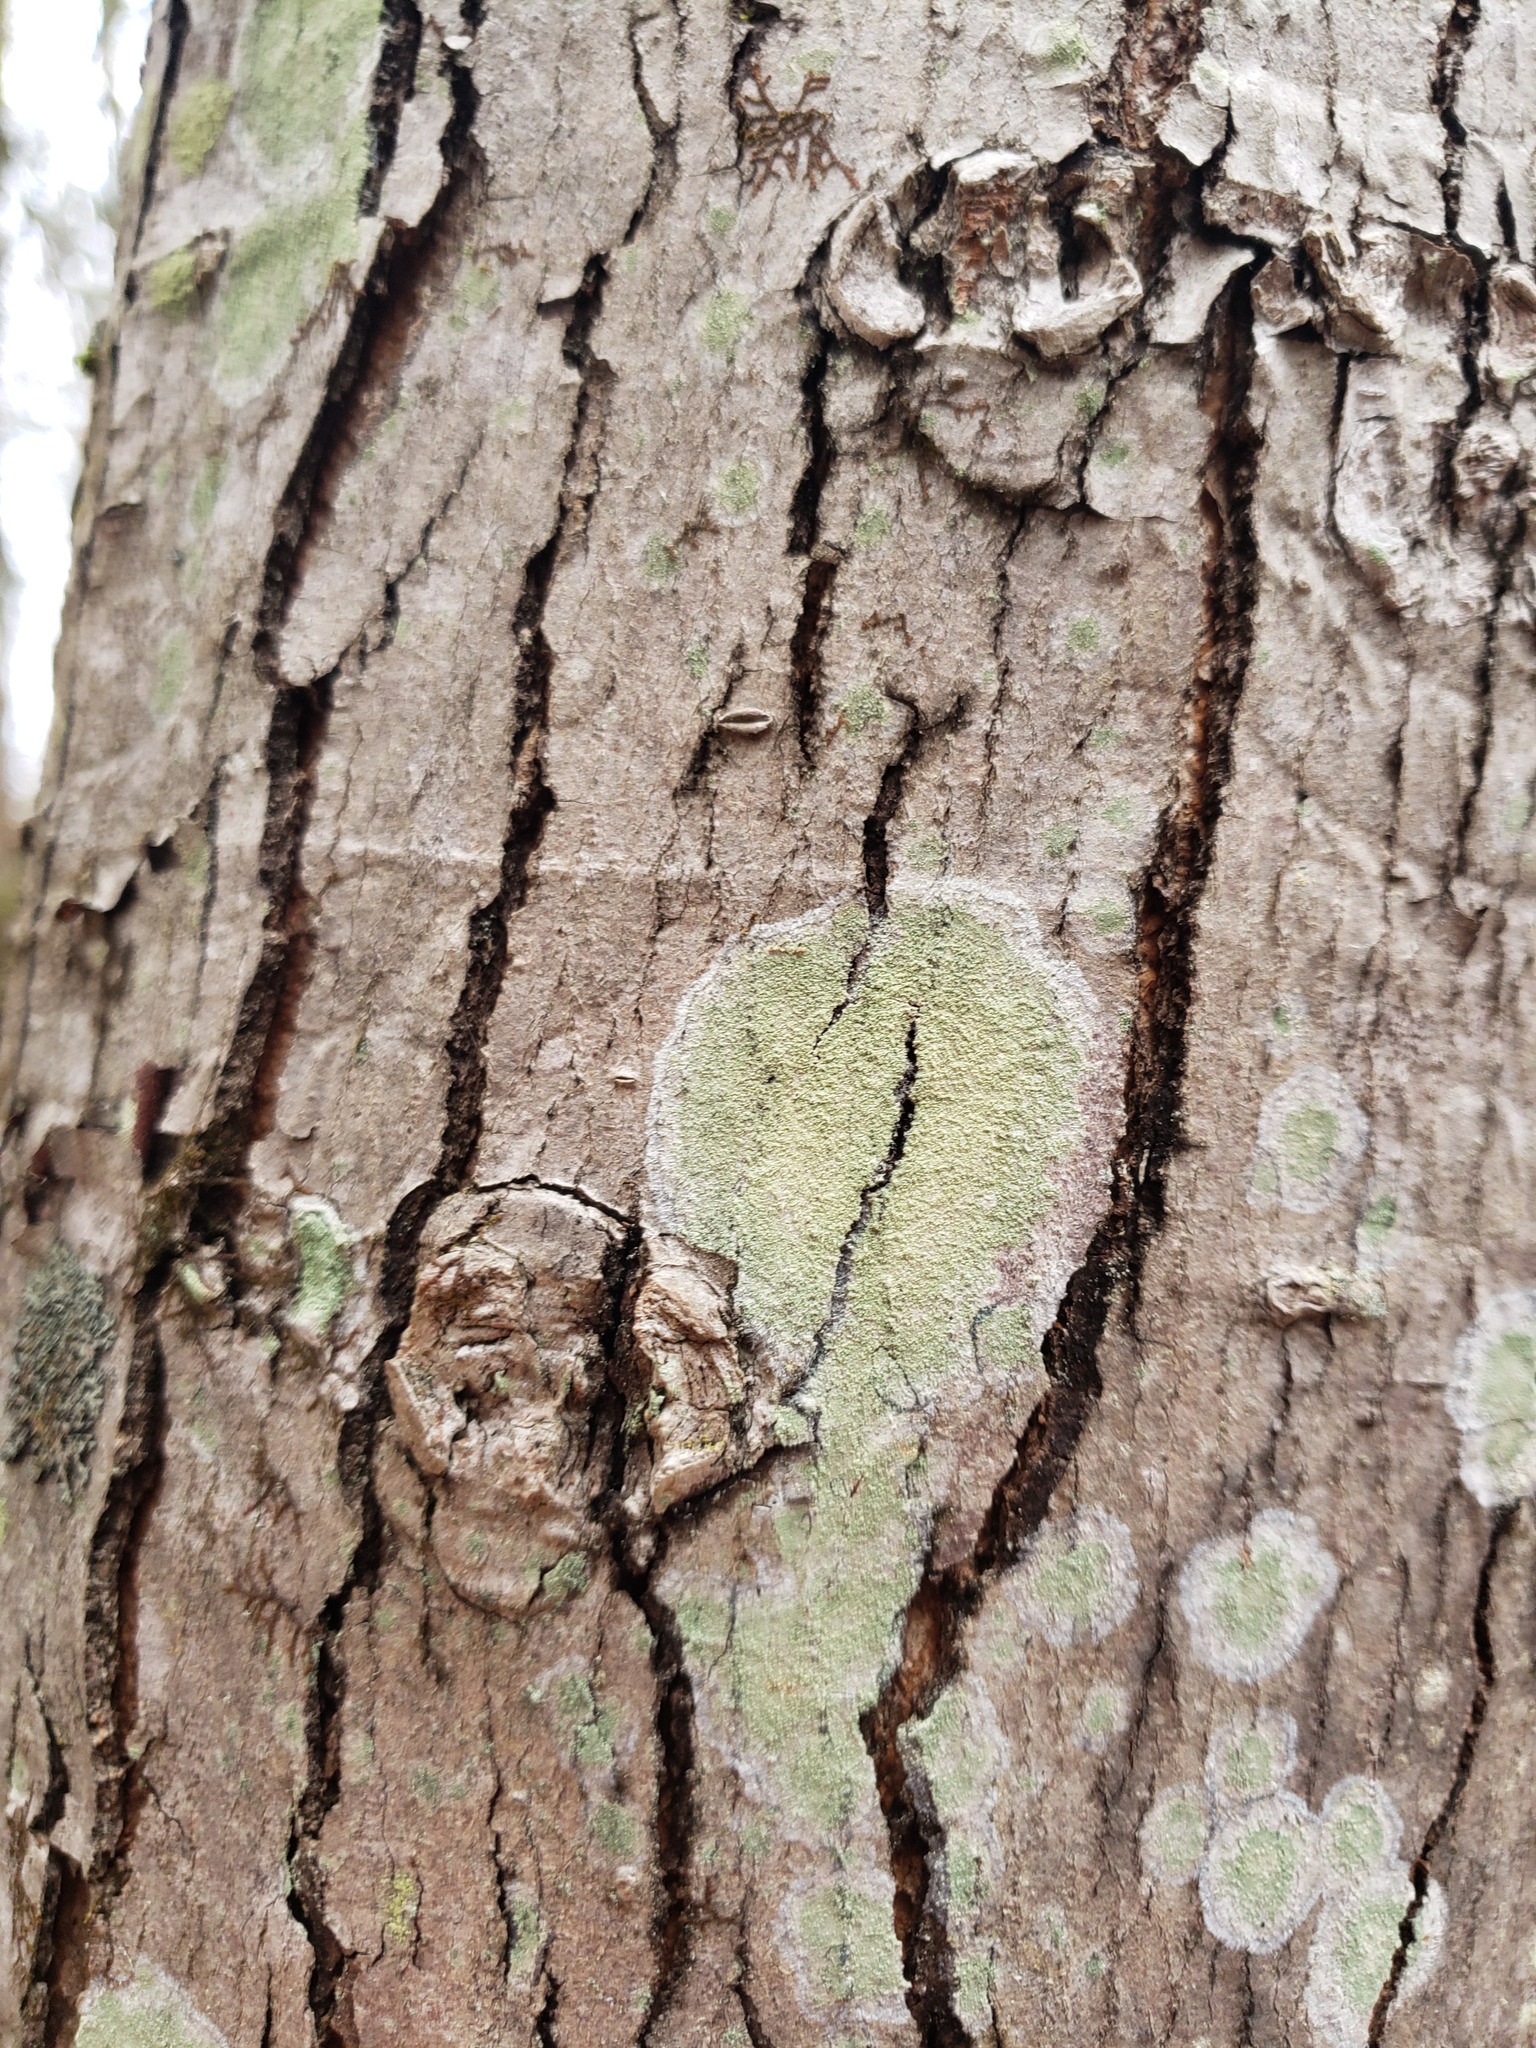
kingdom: Fungi
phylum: Ascomycota
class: Lecanoromycetes
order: Pertusariales
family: Pertusariaceae
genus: Verseghya
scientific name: Verseghya thysanophora
